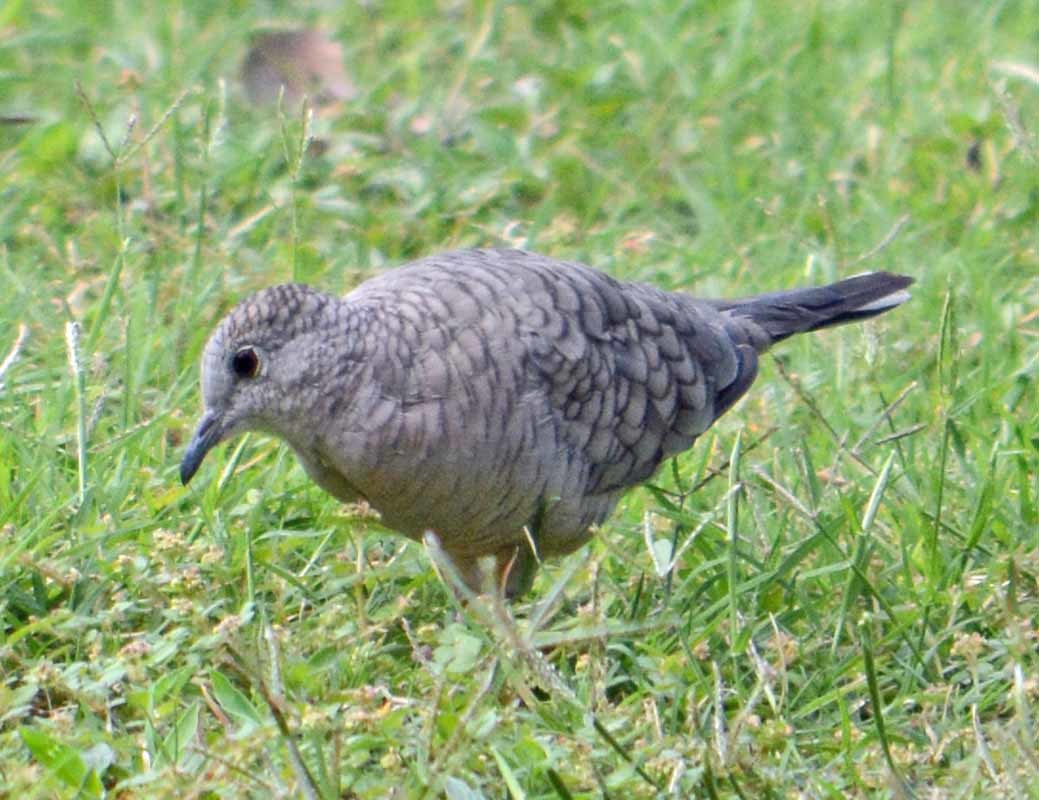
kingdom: Animalia
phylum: Chordata
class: Aves
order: Columbiformes
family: Columbidae
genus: Columbina
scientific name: Columbina inca
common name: Inca dove
